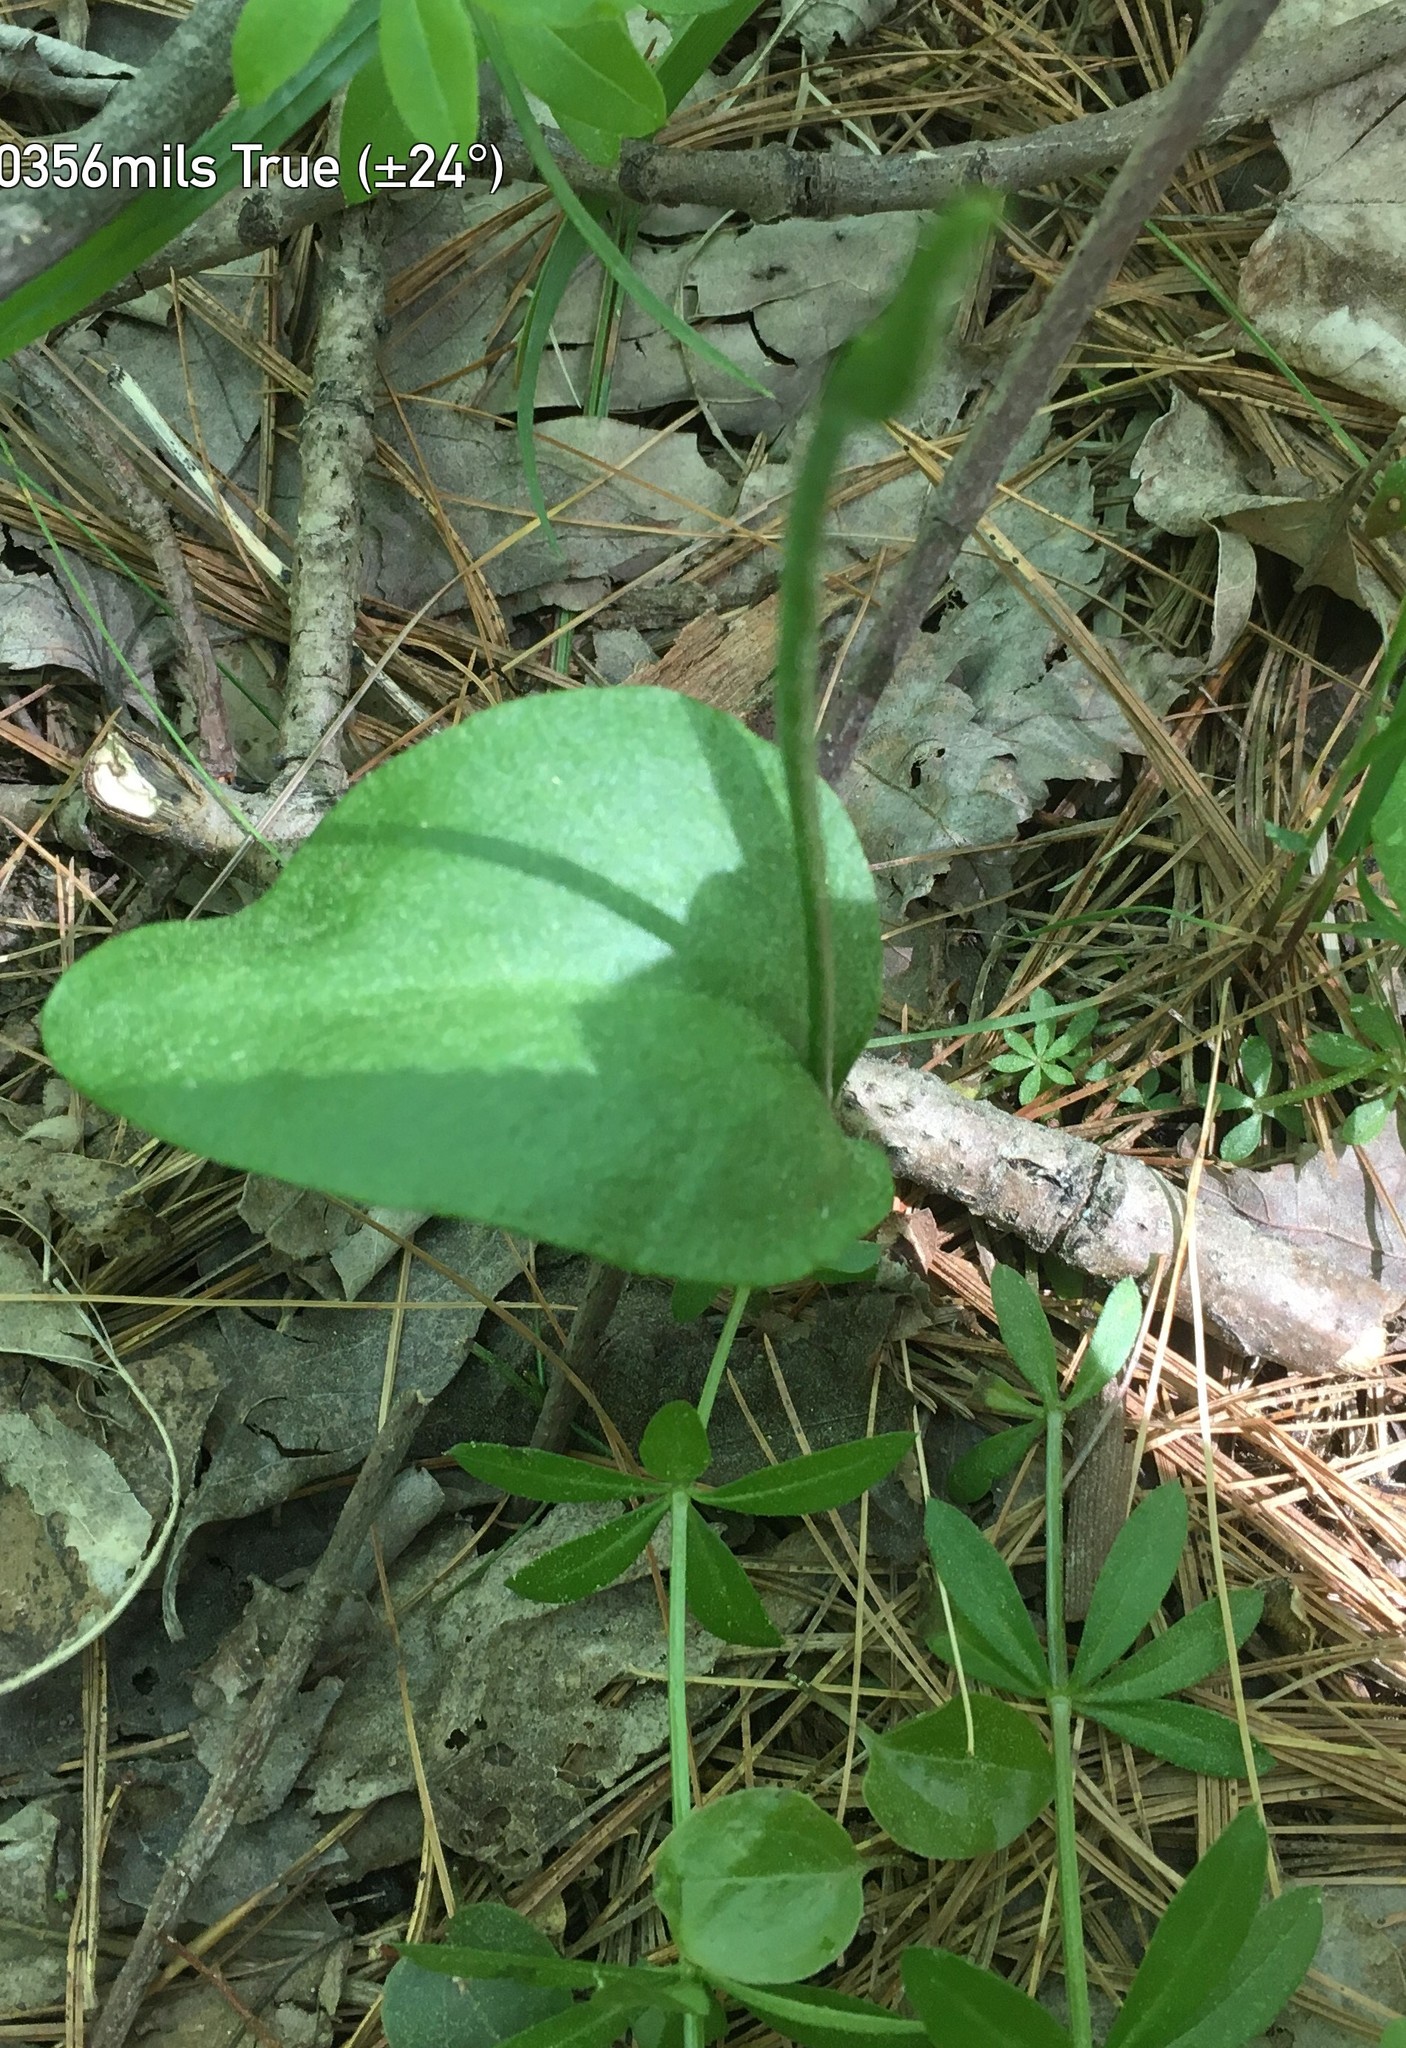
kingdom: Plantae
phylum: Tracheophyta
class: Polypodiopsida
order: Ophioglossales
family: Ophioglossaceae
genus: Ophioglossum
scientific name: Ophioglossum vulgatum
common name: Adder's-tongue
